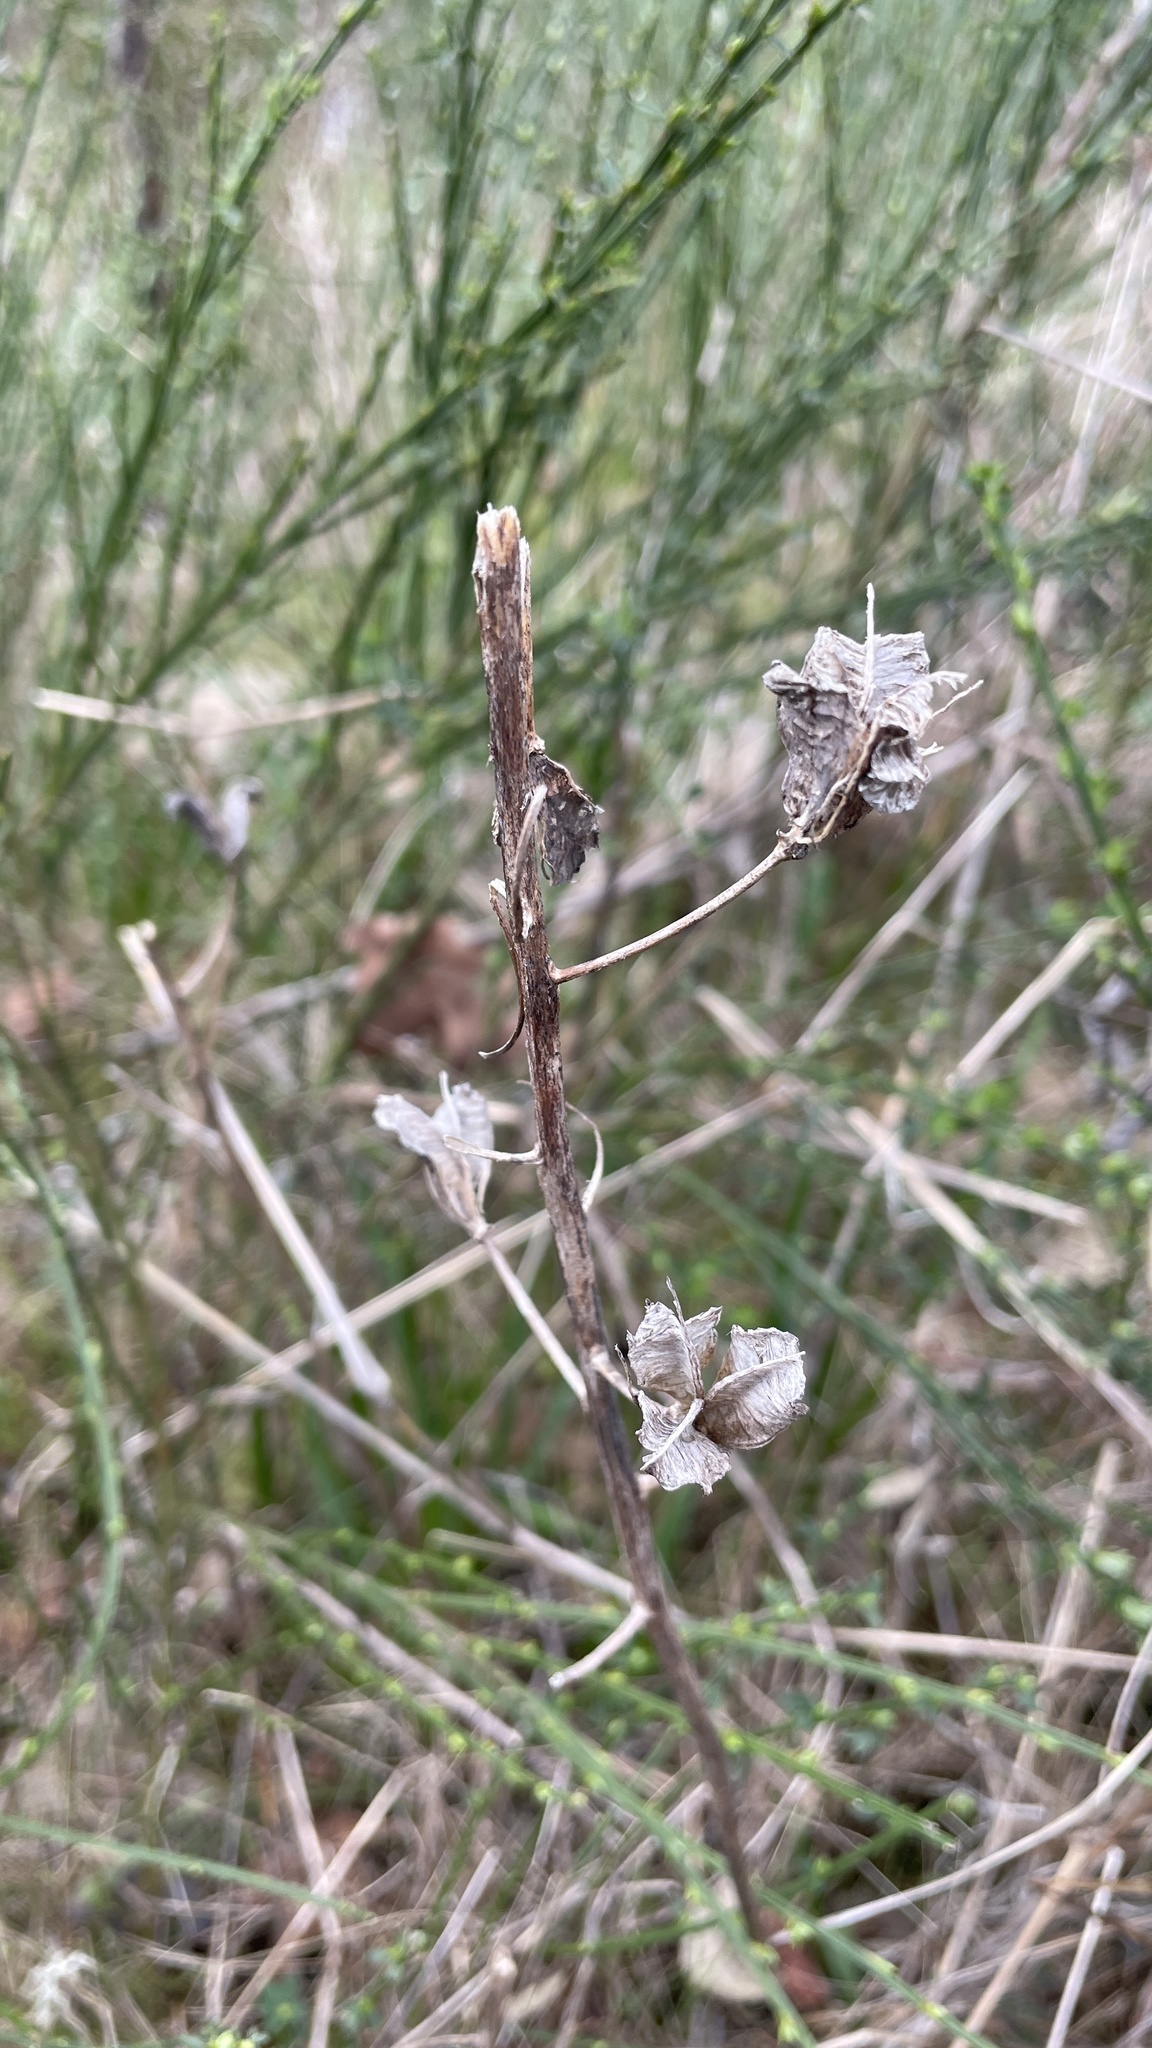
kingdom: Plantae
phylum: Tracheophyta
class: Liliopsida
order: Asparagales
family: Asparagaceae
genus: Camassia
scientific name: Camassia leichtlinii
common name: Leichtlin's camas
